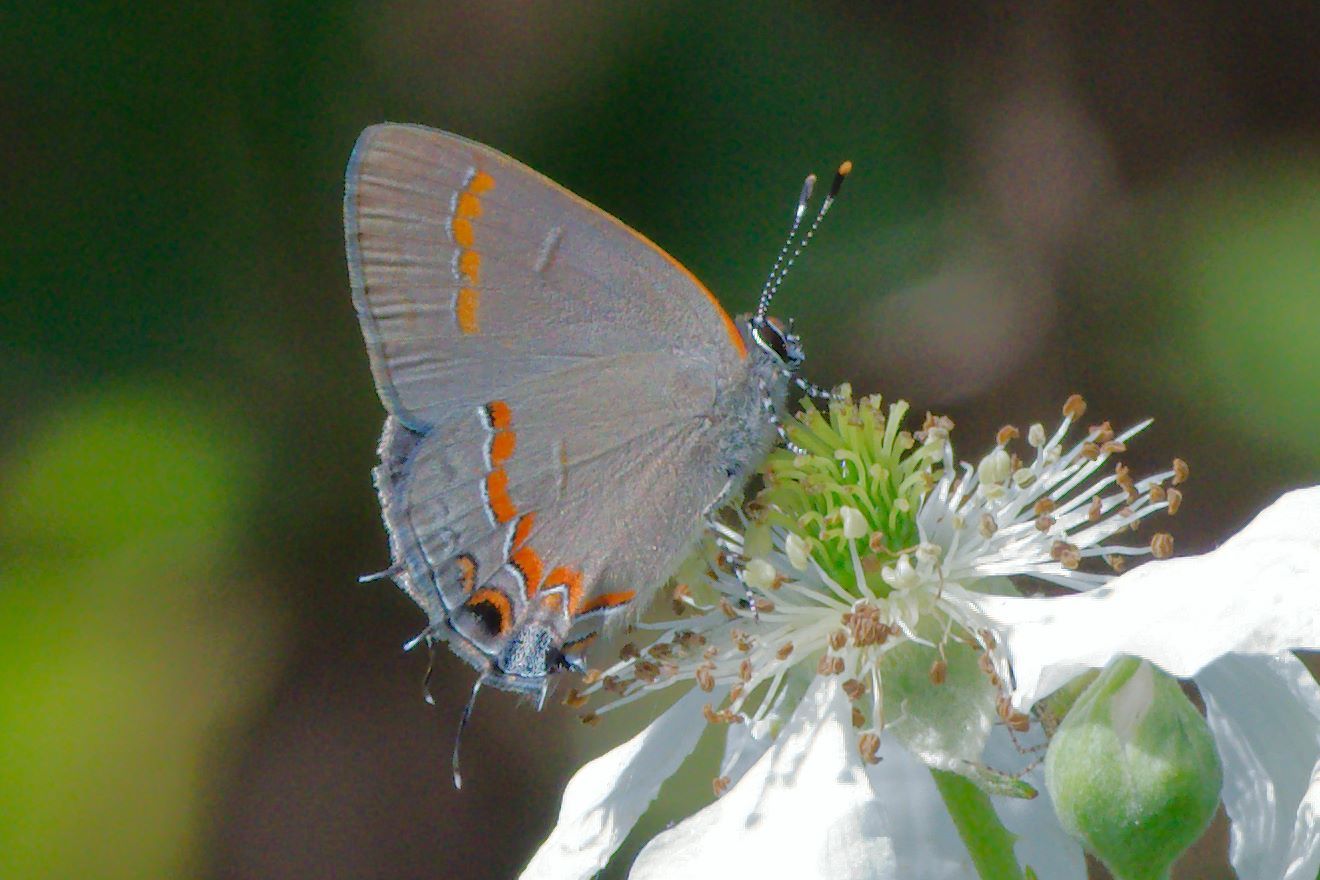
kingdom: Animalia
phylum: Arthropoda
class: Insecta
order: Lepidoptera
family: Lycaenidae
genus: Calycopis
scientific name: Calycopis cecrops
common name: Red-banded hairstreak
